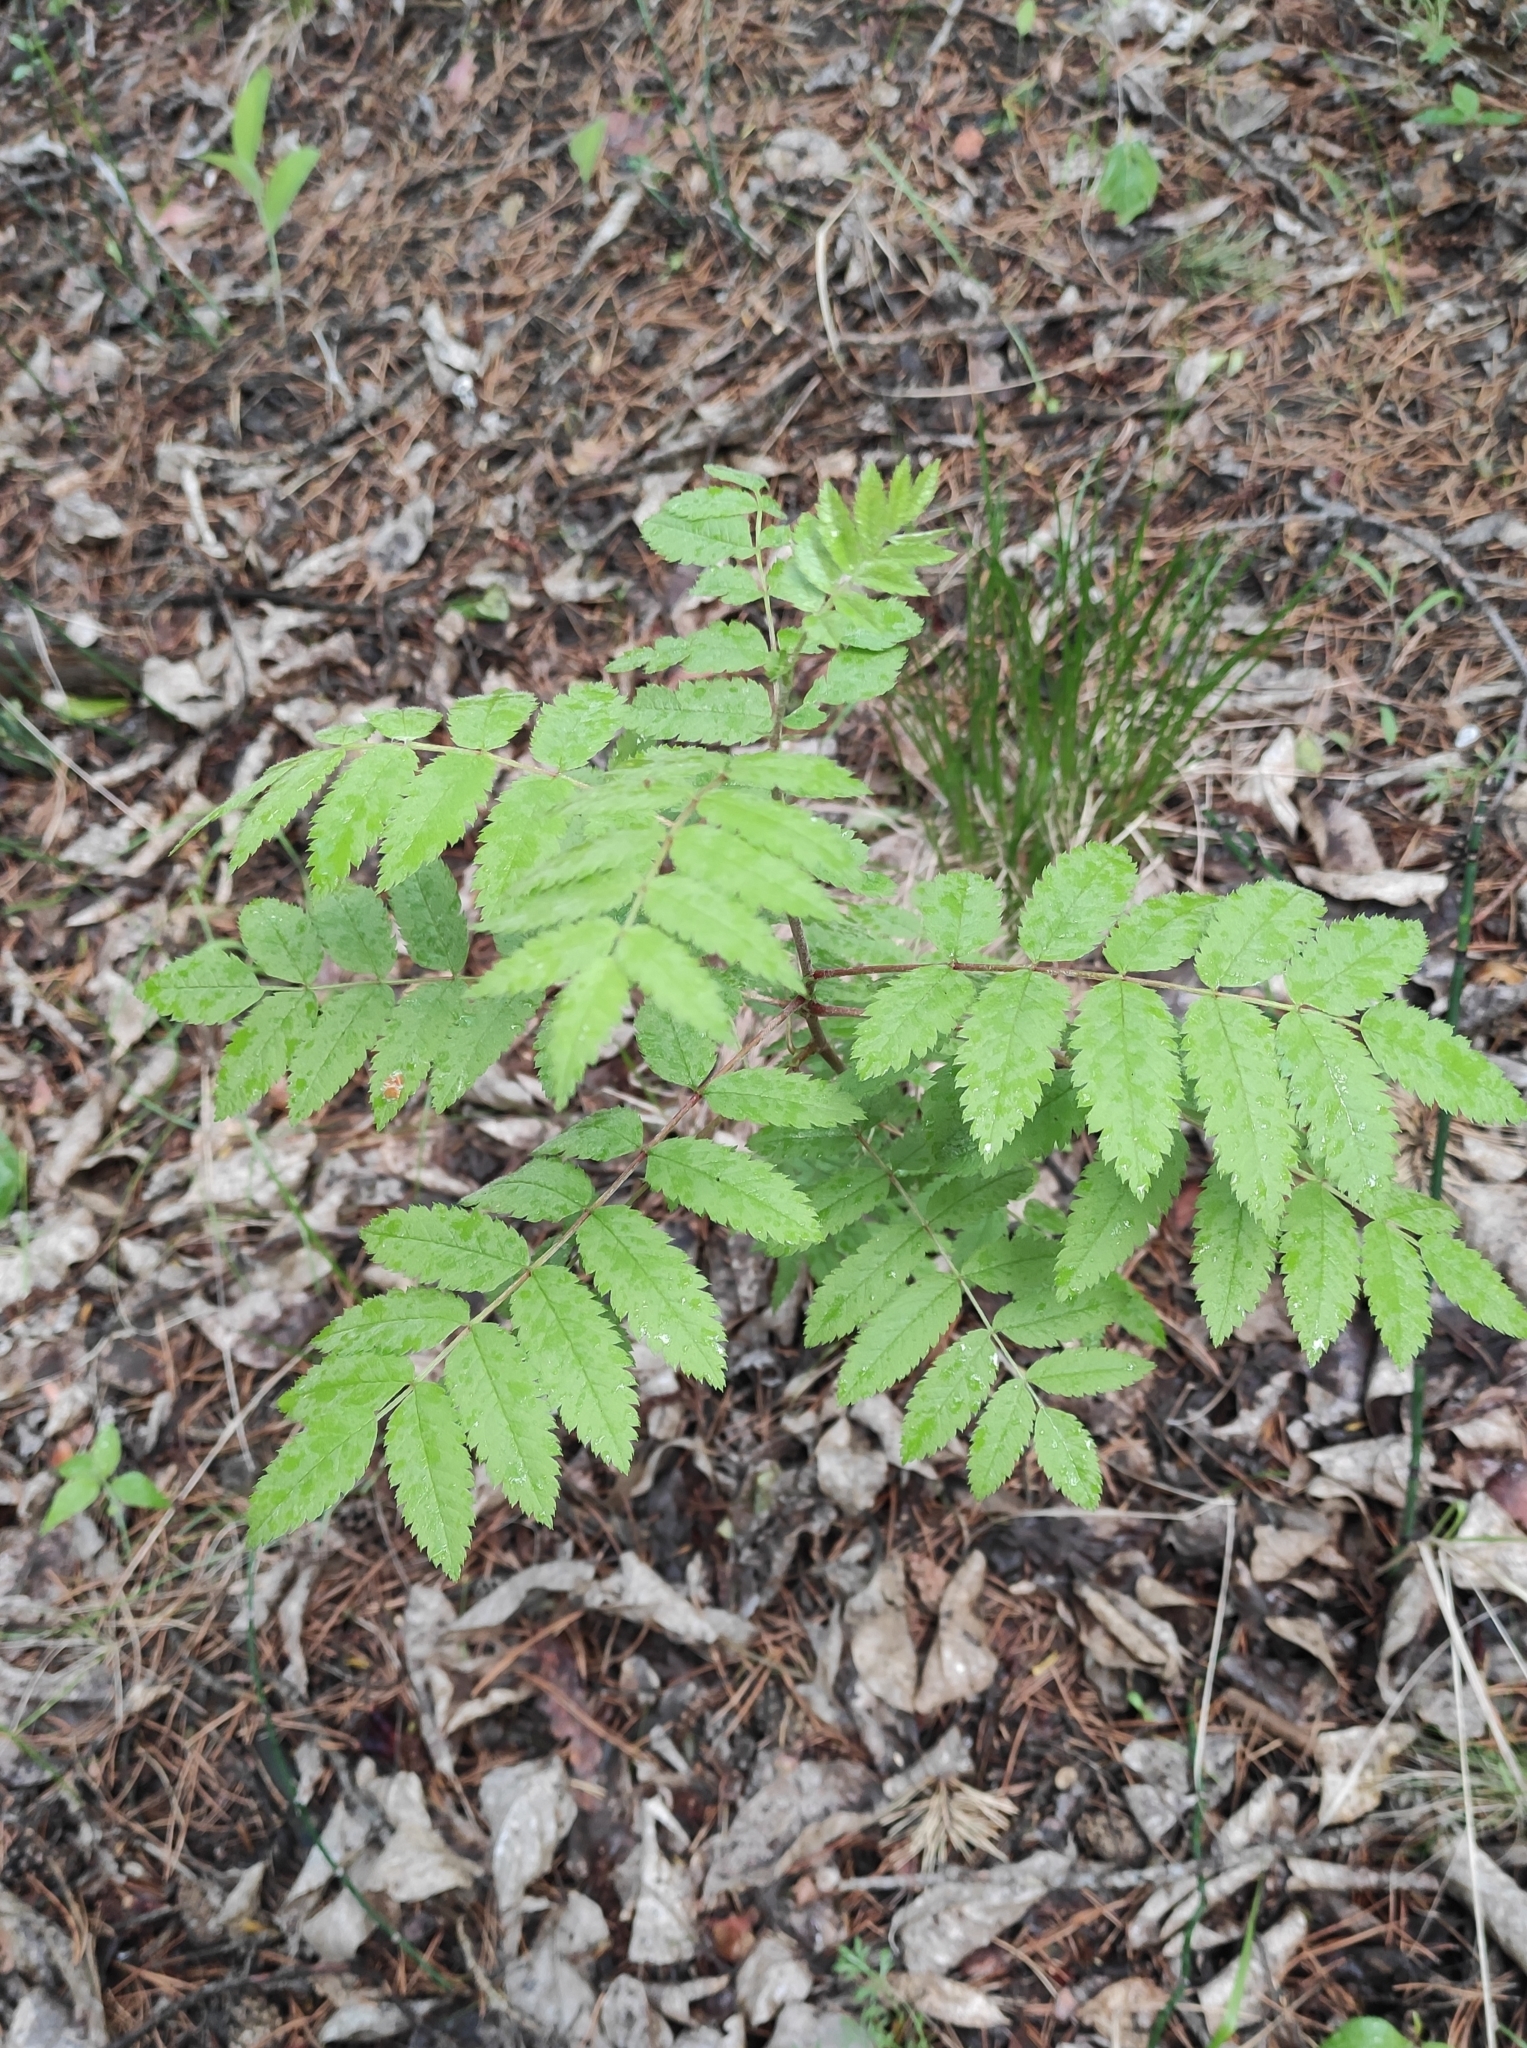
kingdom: Plantae
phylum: Tracheophyta
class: Magnoliopsida
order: Rosales
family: Rosaceae
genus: Sorbus
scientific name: Sorbus aucuparia
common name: Rowan
